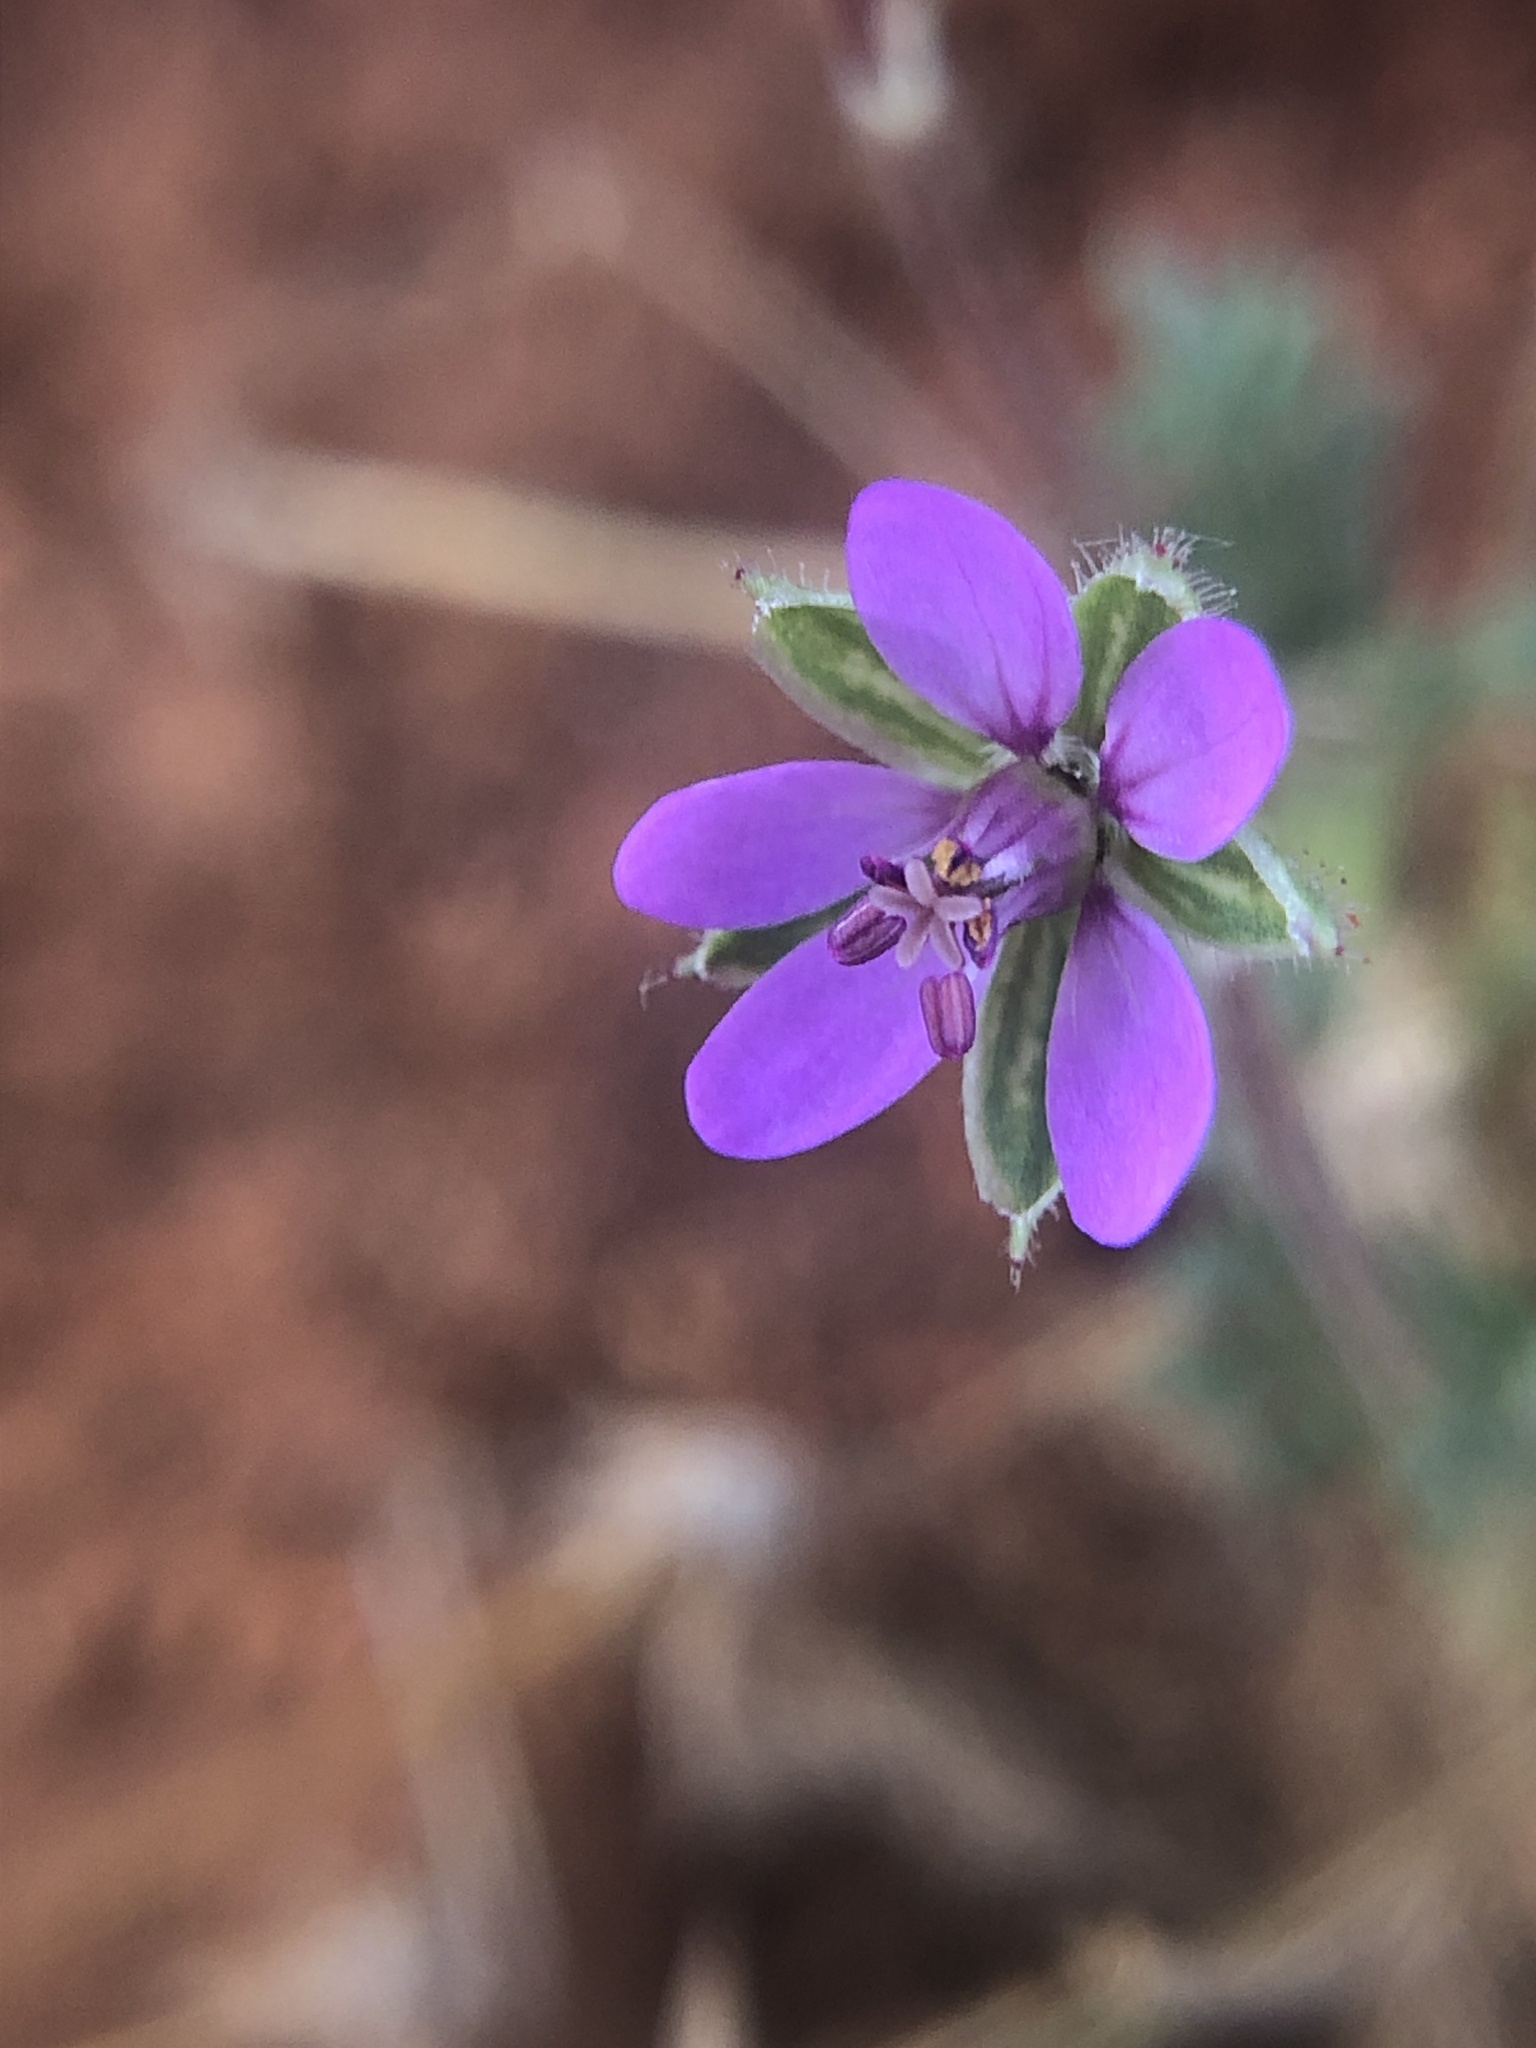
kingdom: Plantae
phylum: Tracheophyta
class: Magnoliopsida
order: Geraniales
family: Geraniaceae
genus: Erodium
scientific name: Erodium cicutarium
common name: Common stork's-bill
